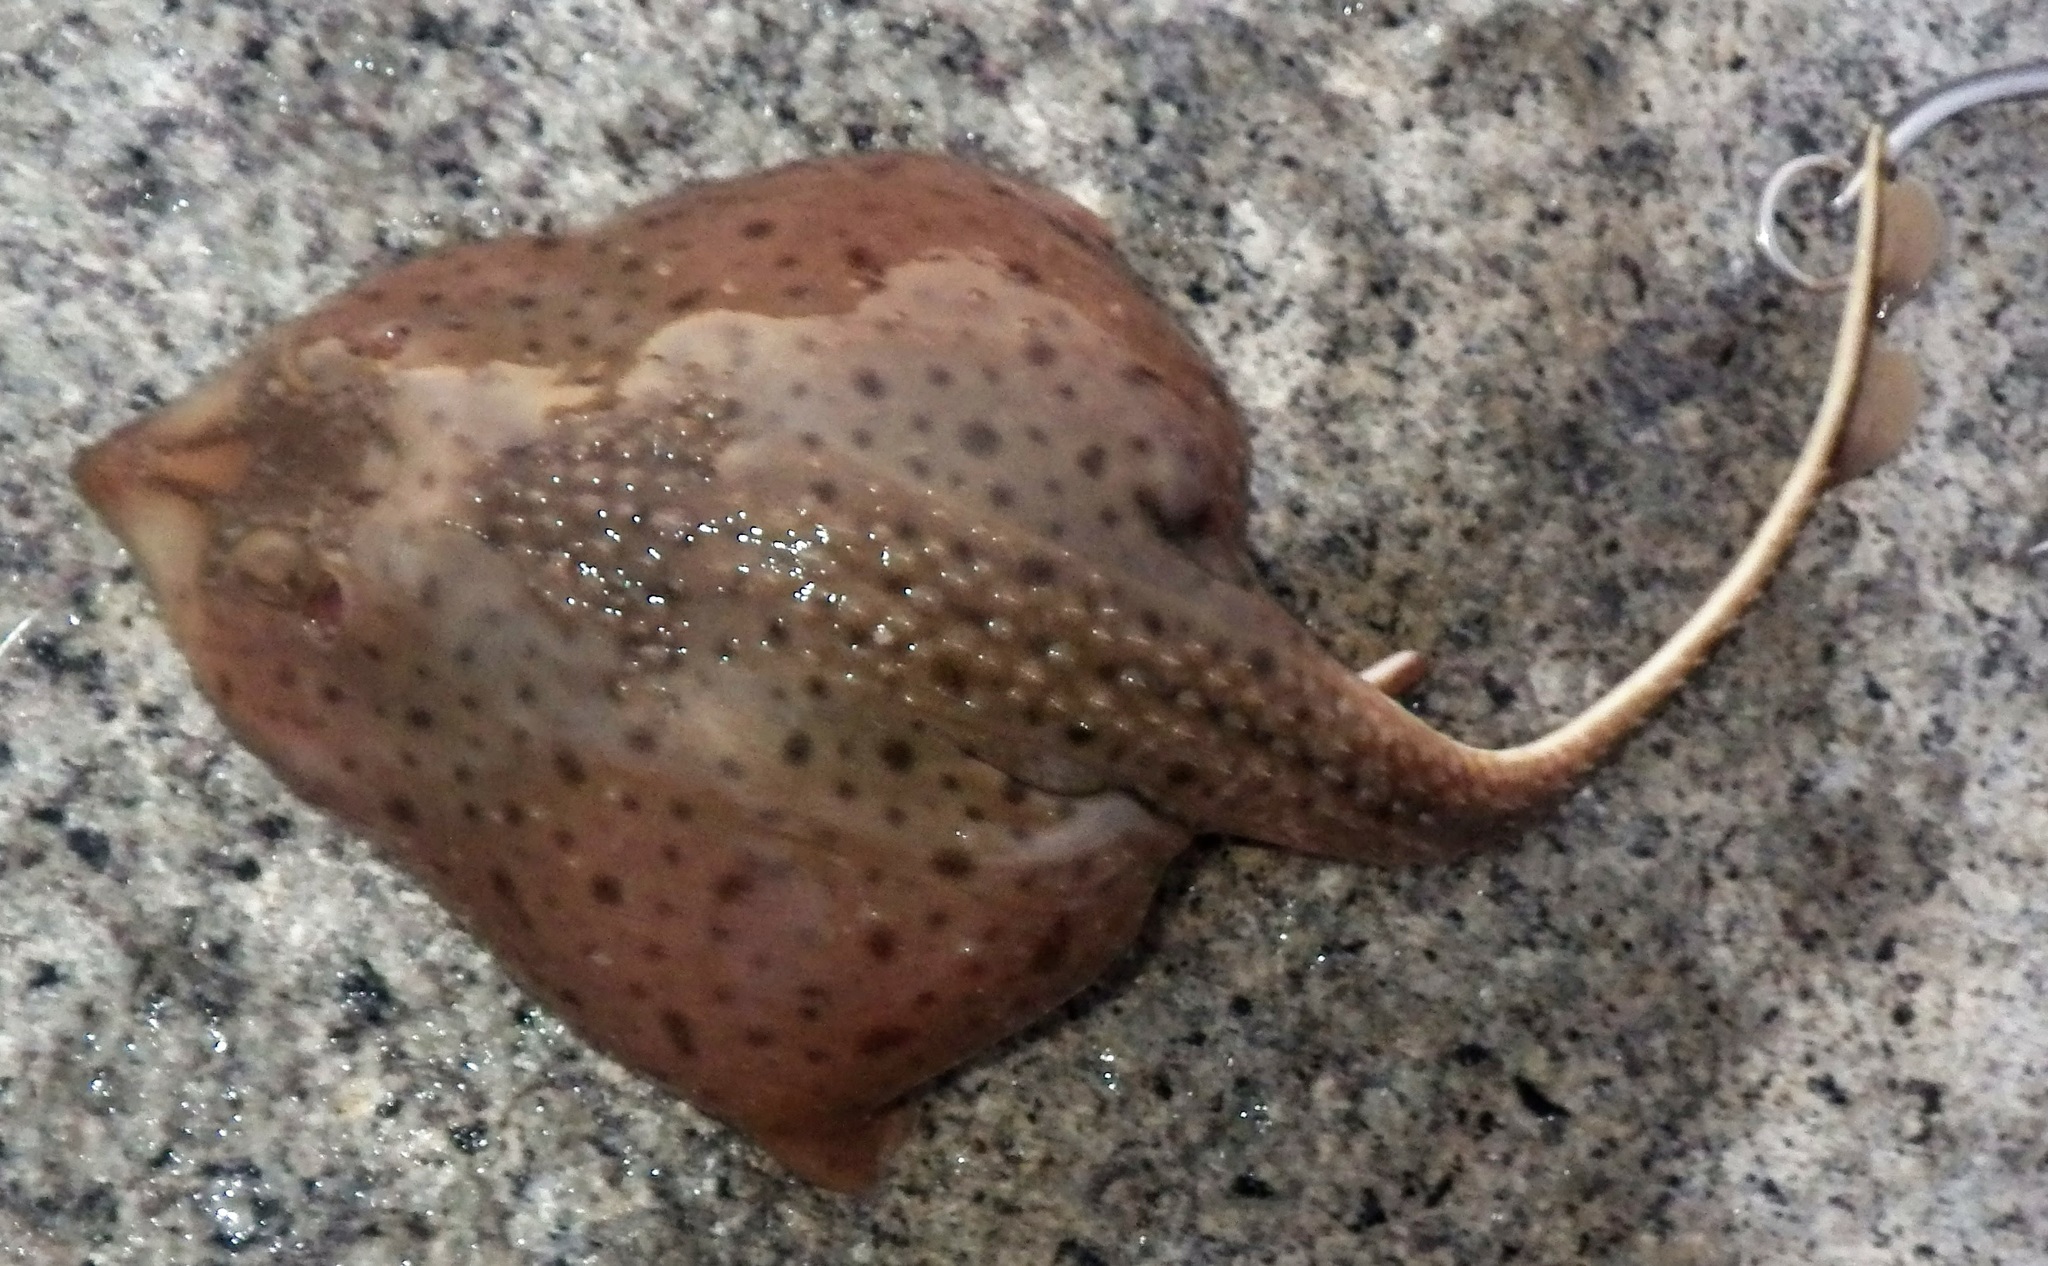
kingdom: Animalia
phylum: Chordata
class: Elasmobranchii
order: Rajiformes
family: Rajidae
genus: Leucoraja
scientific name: Leucoraja erinacea
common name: Little skate
